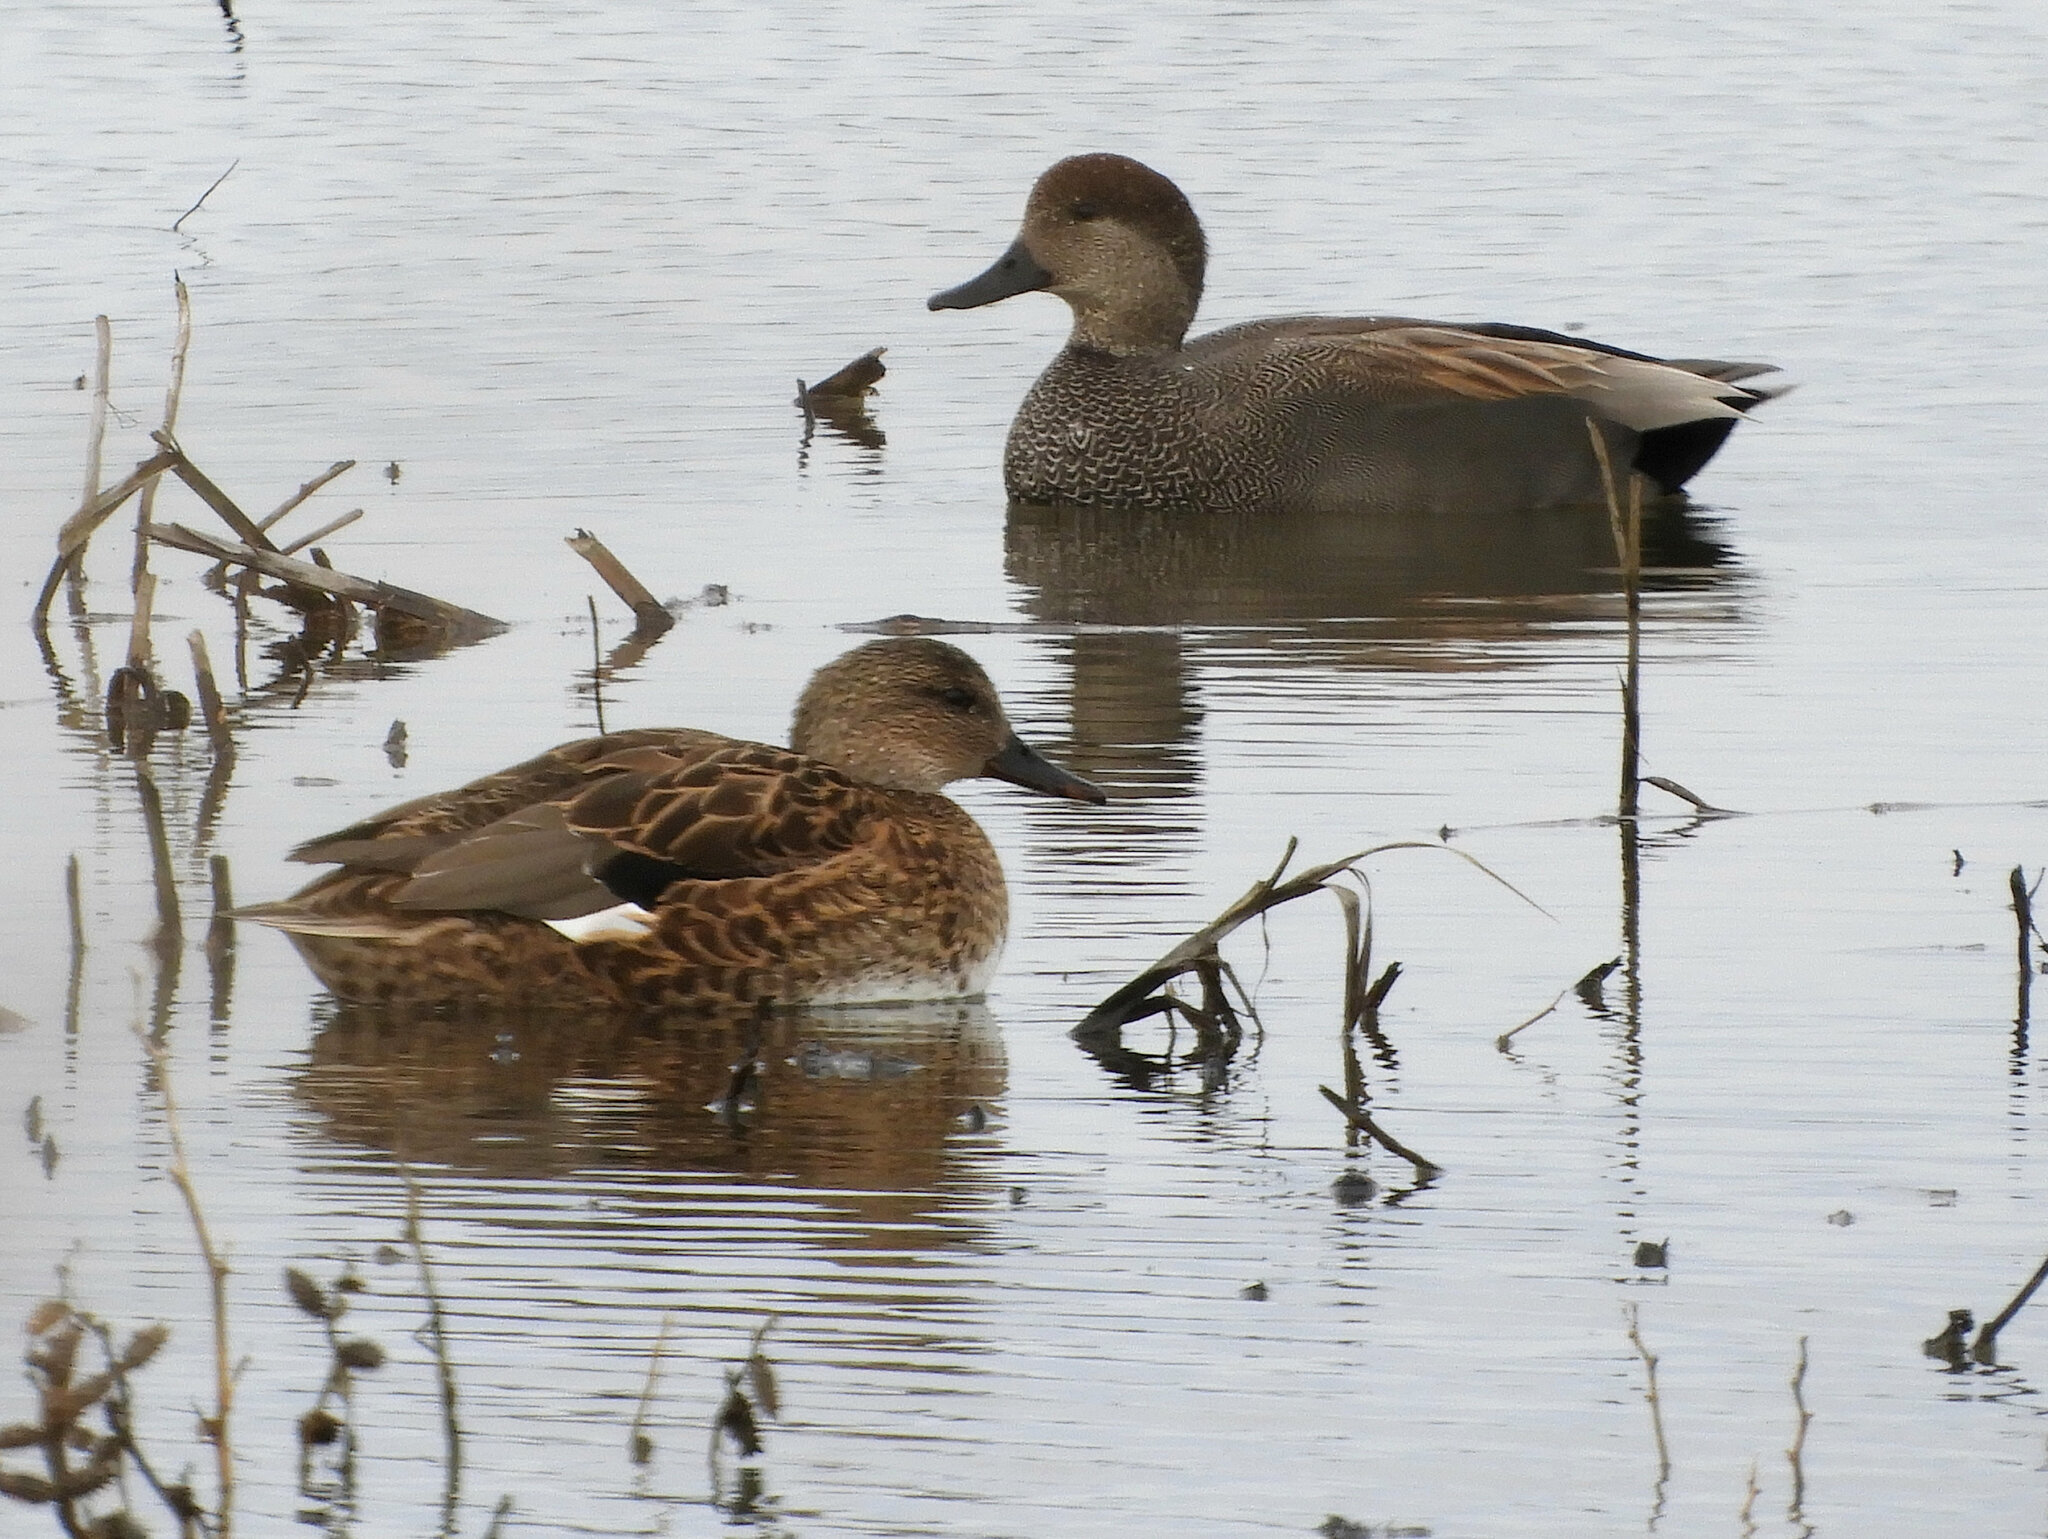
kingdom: Animalia
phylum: Chordata
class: Aves
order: Anseriformes
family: Anatidae
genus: Mareca
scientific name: Mareca strepera
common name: Gadwall
